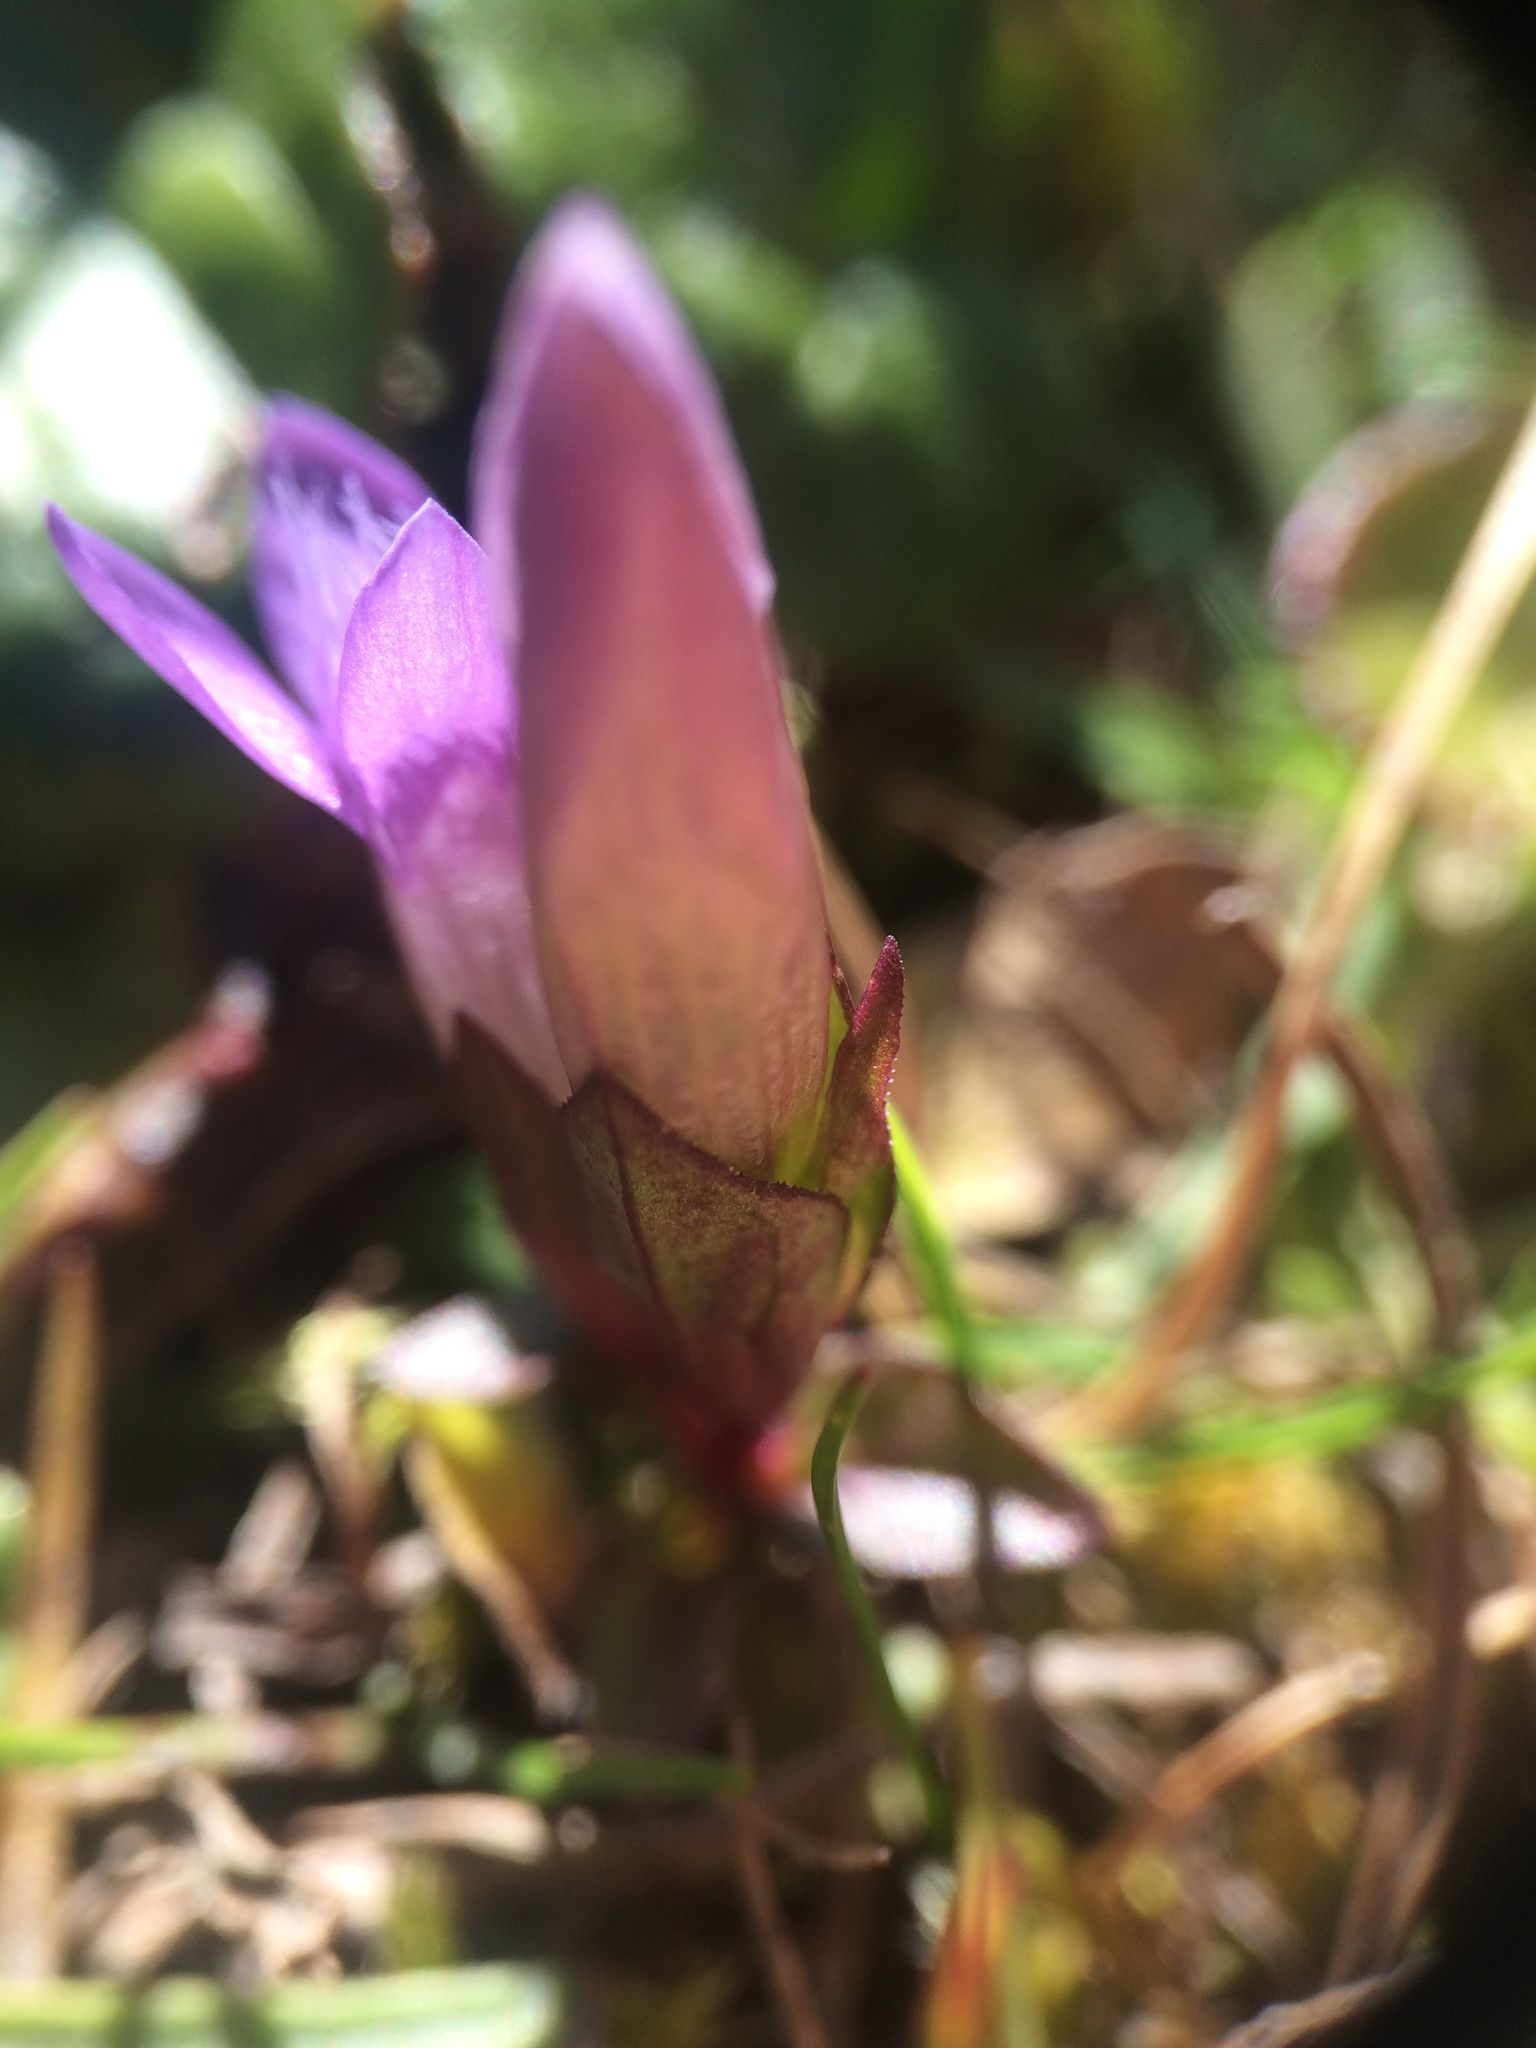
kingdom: Plantae
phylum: Tracheophyta
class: Magnoliopsida
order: Gentianales
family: Gentianaceae
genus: Gentianella
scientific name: Gentianella campestris
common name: Field gentian
